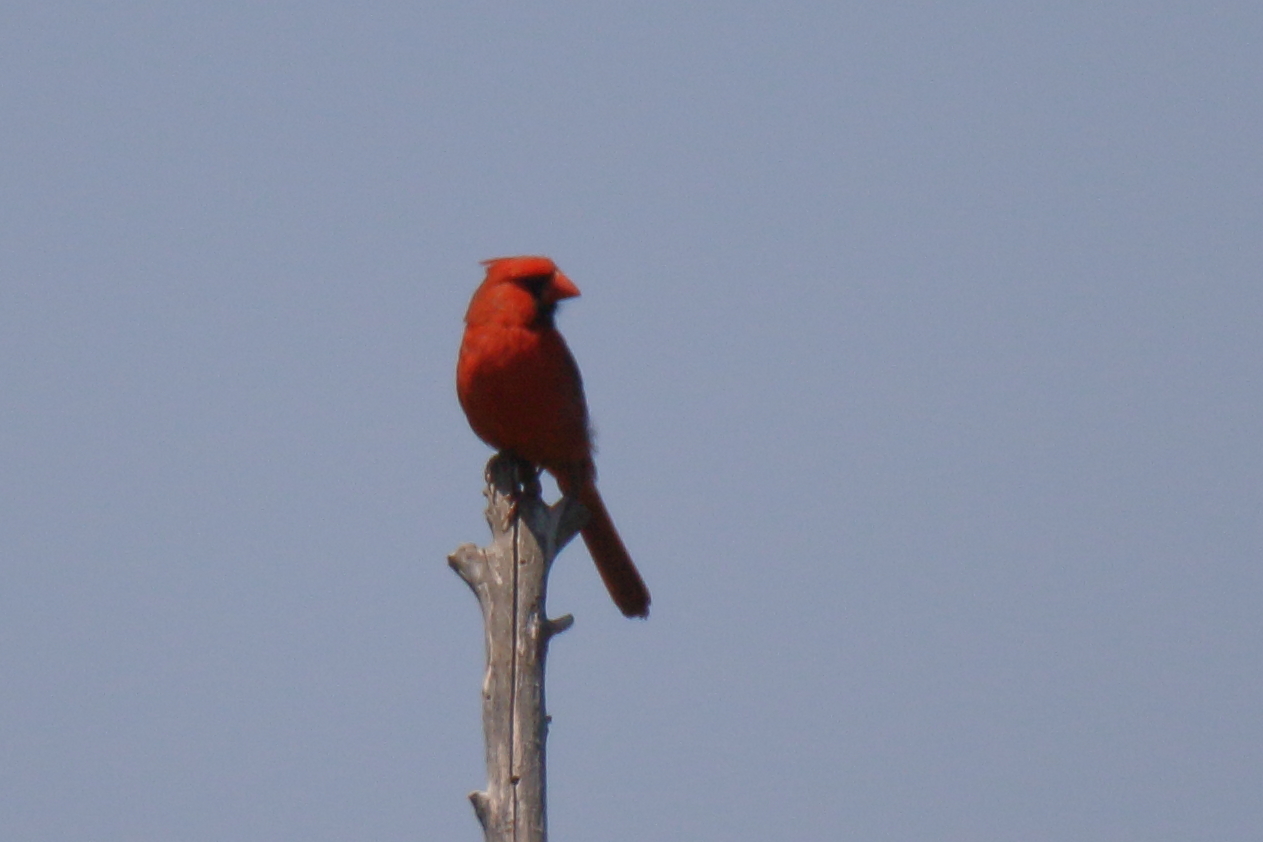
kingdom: Animalia
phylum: Chordata
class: Aves
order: Passeriformes
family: Cardinalidae
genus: Cardinalis
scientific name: Cardinalis cardinalis
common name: Northern cardinal
